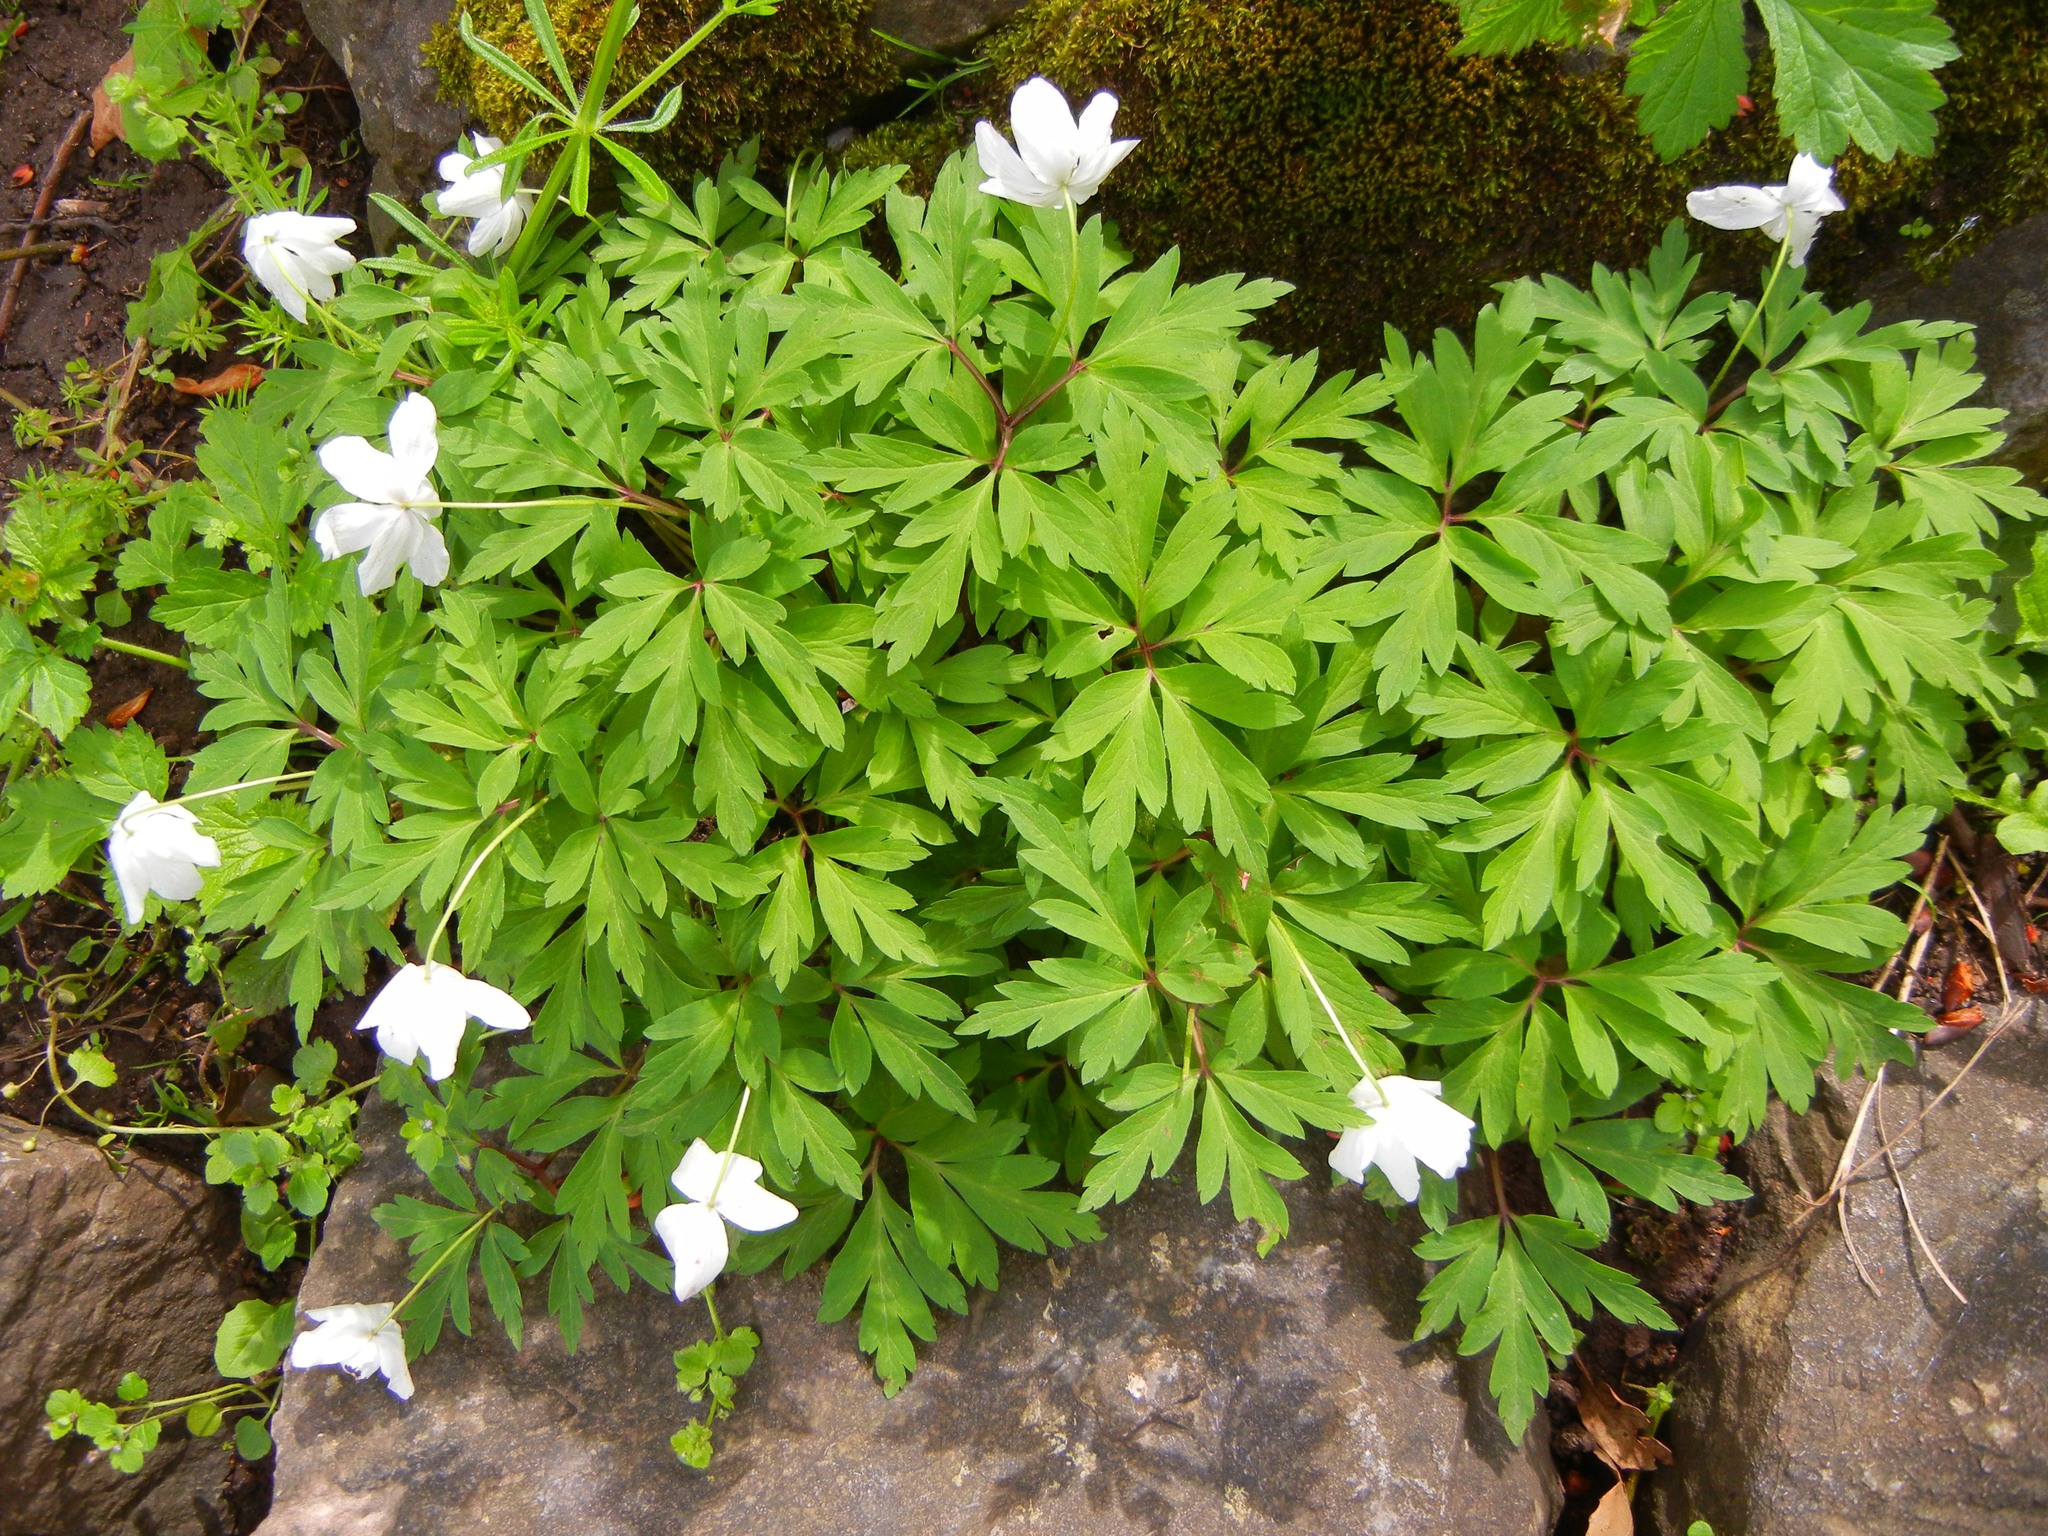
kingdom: Plantae
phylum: Tracheophyta
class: Magnoliopsida
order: Ranunculales
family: Ranunculaceae
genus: Anemone
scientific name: Anemone nemorosa
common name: Wood anemone
